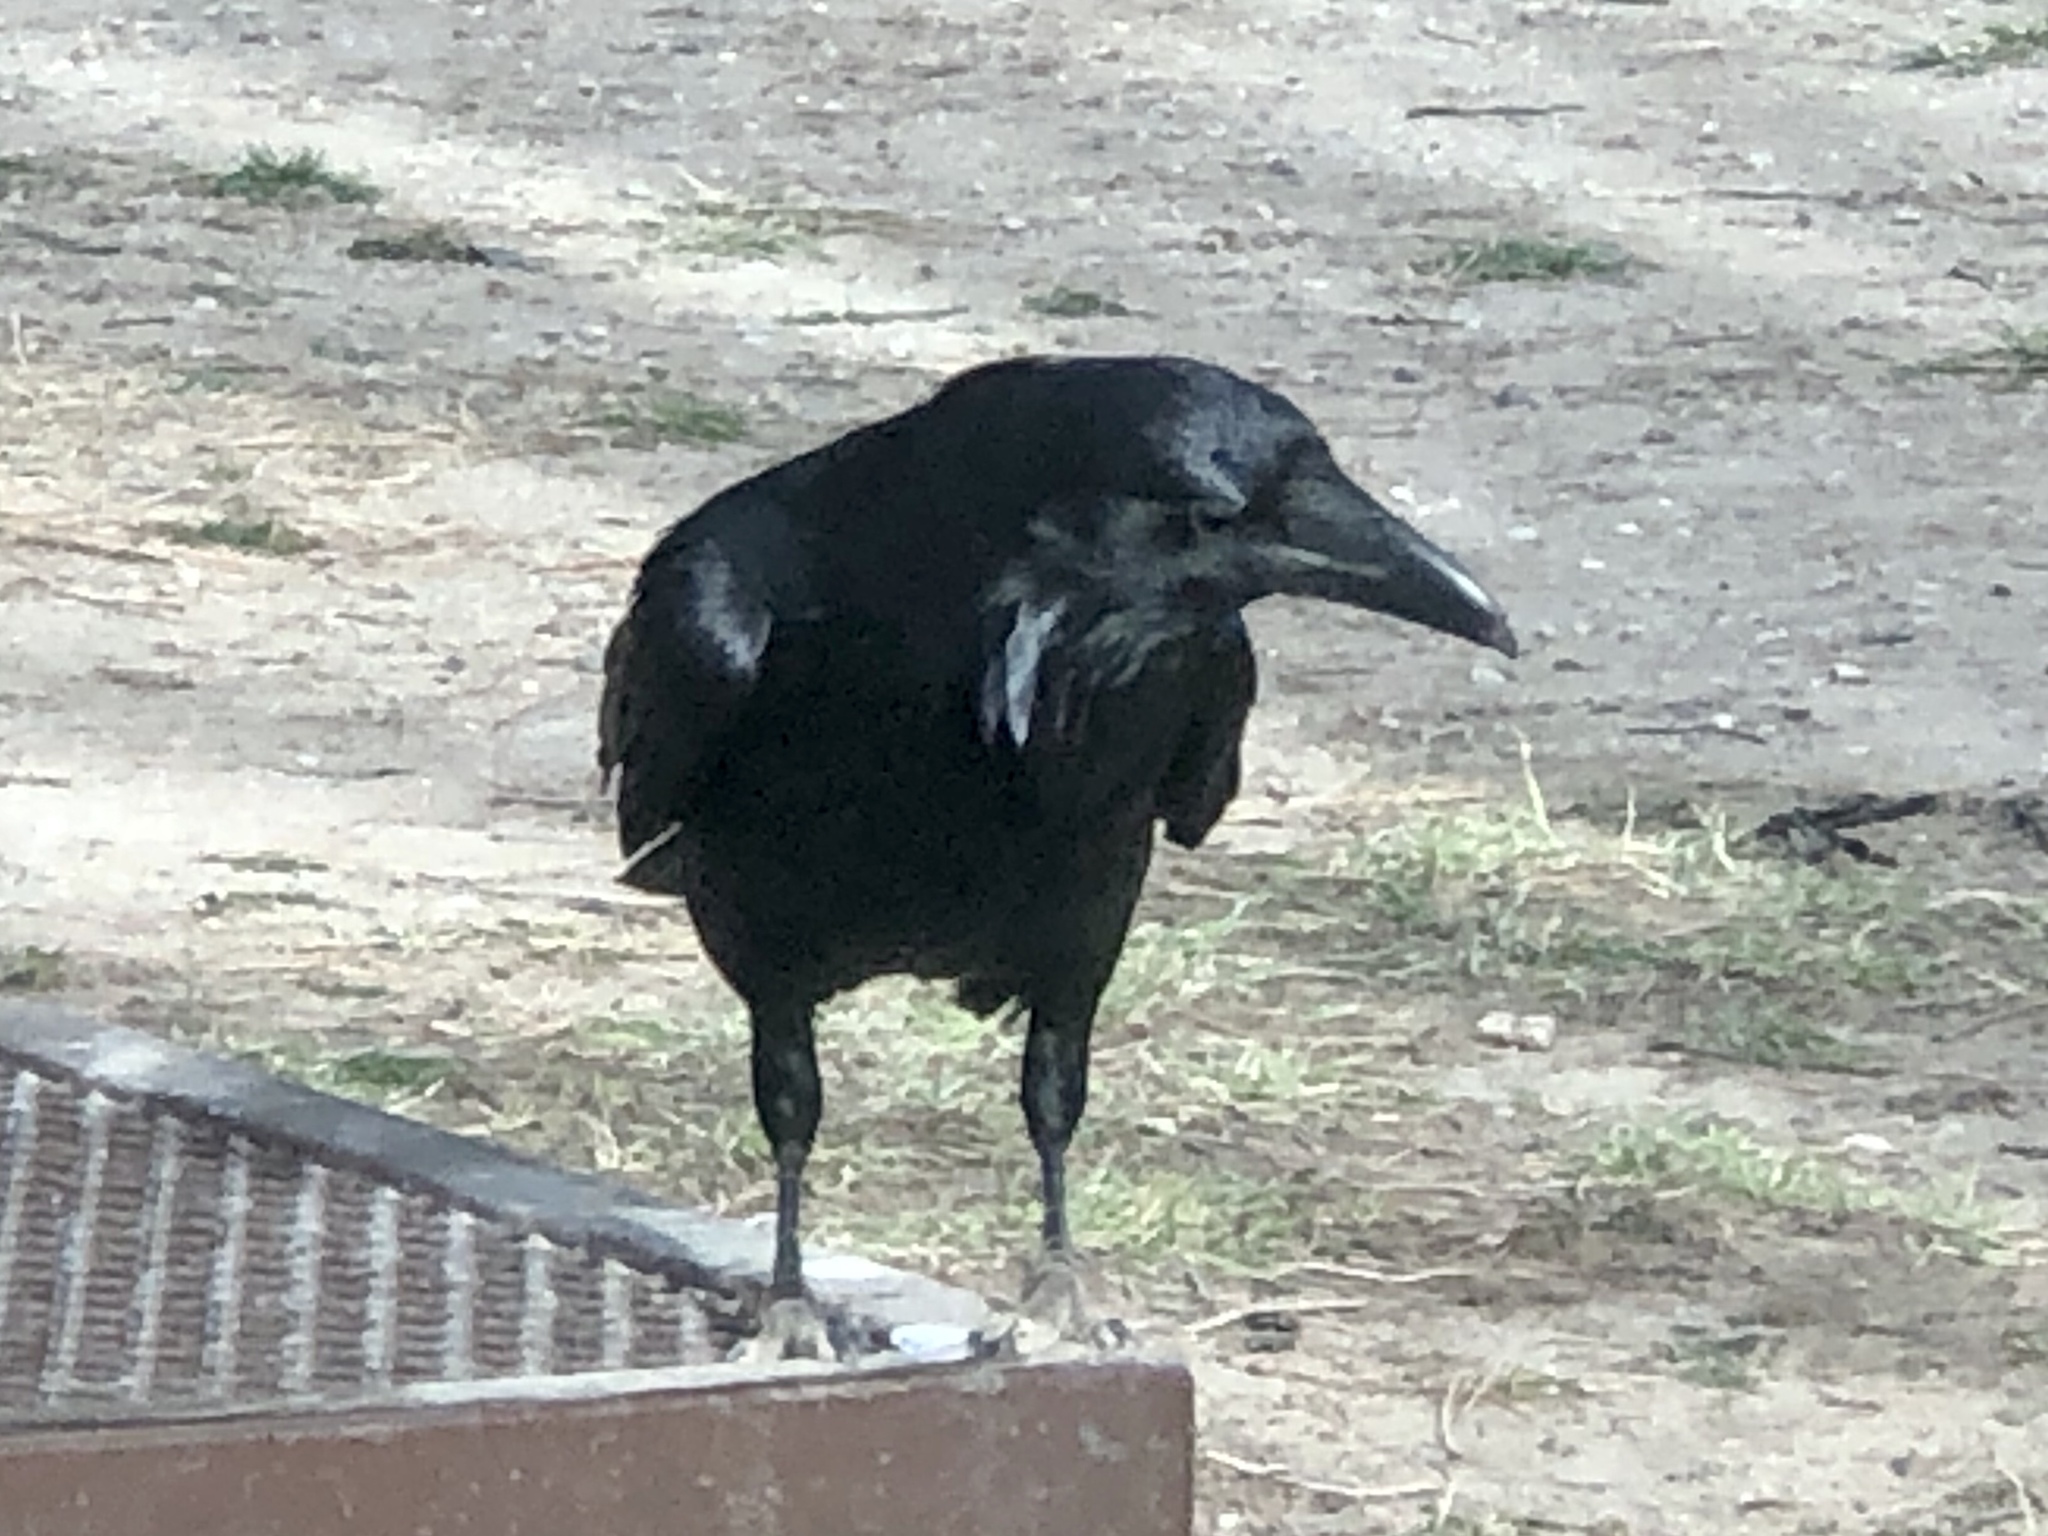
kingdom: Animalia
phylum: Chordata
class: Aves
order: Passeriformes
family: Corvidae
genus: Corvus
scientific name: Corvus corax
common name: Common raven
